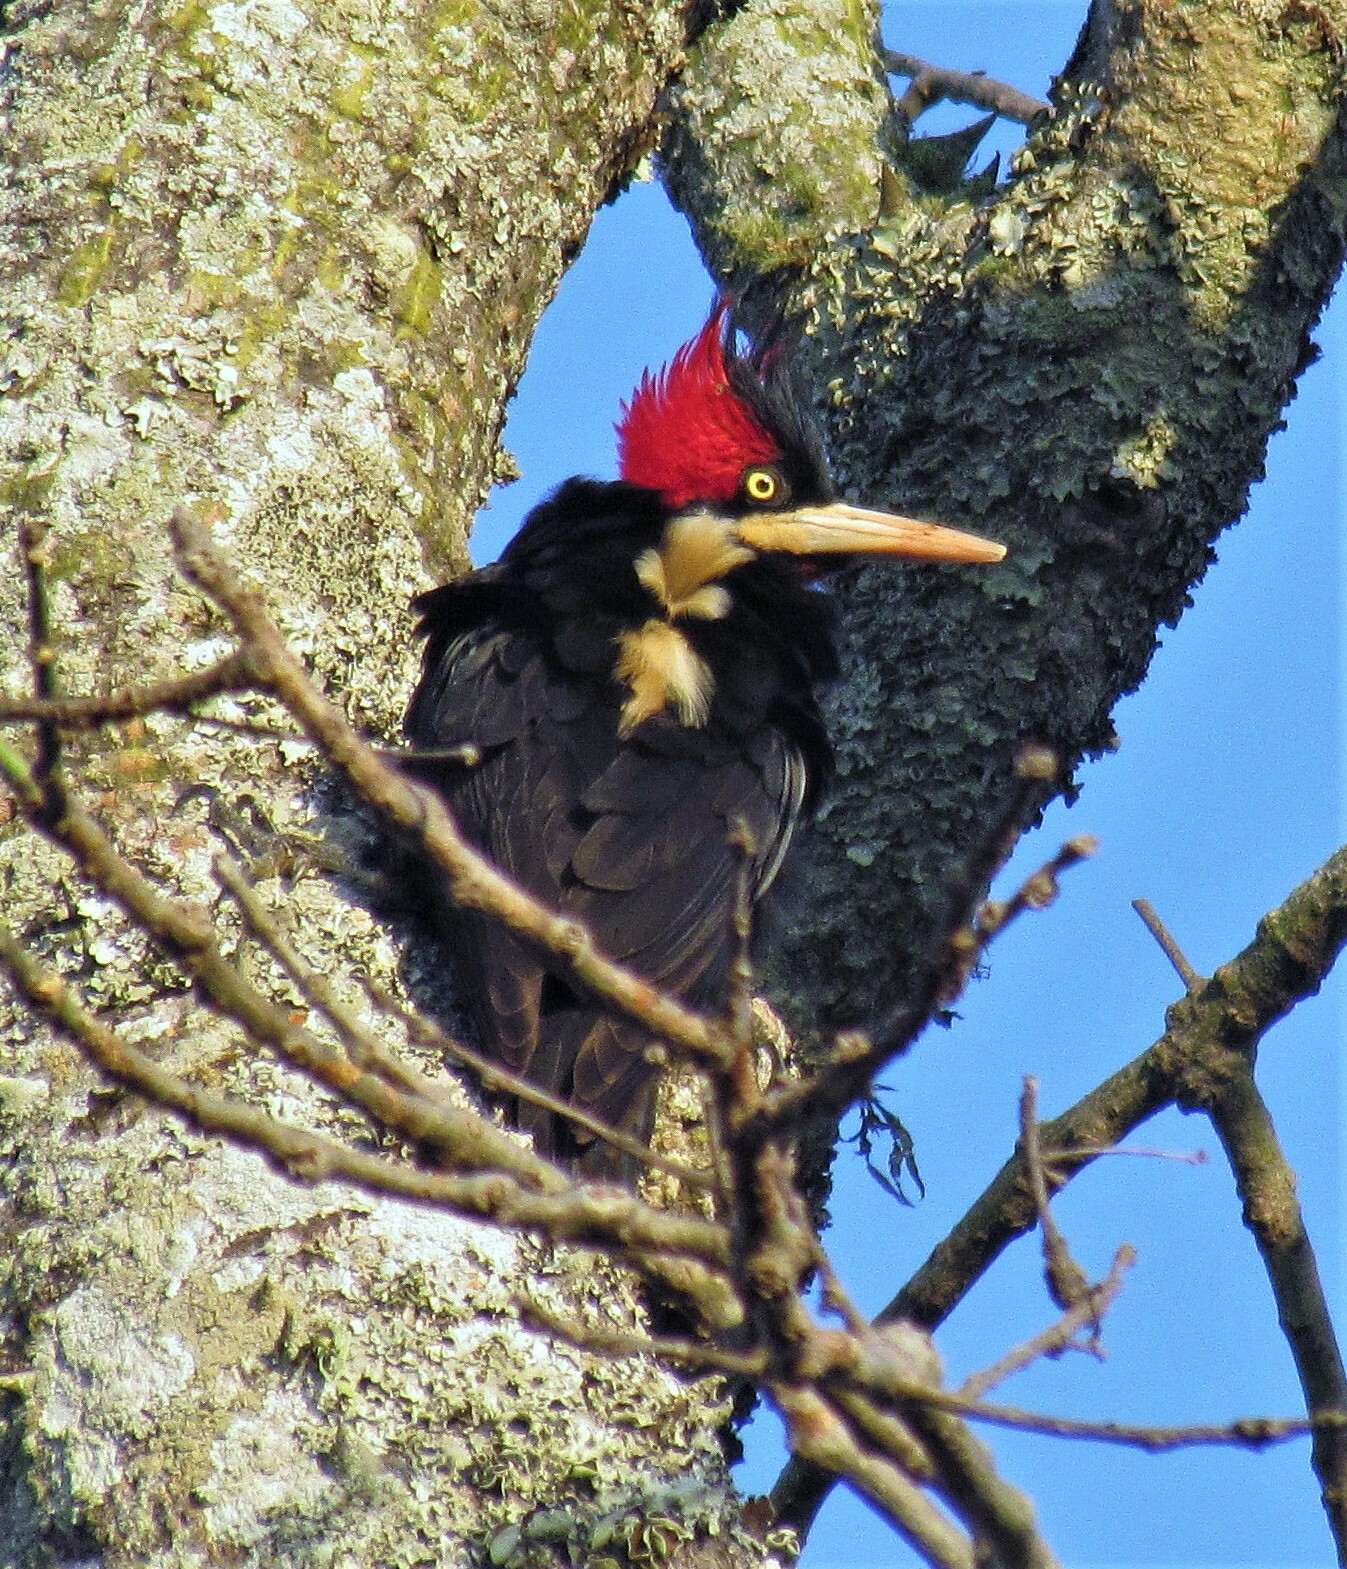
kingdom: Animalia
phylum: Chordata
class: Aves
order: Piciformes
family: Picidae
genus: Campephilus
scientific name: Campephilus leucopogon
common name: Cream-backed woodpecker
